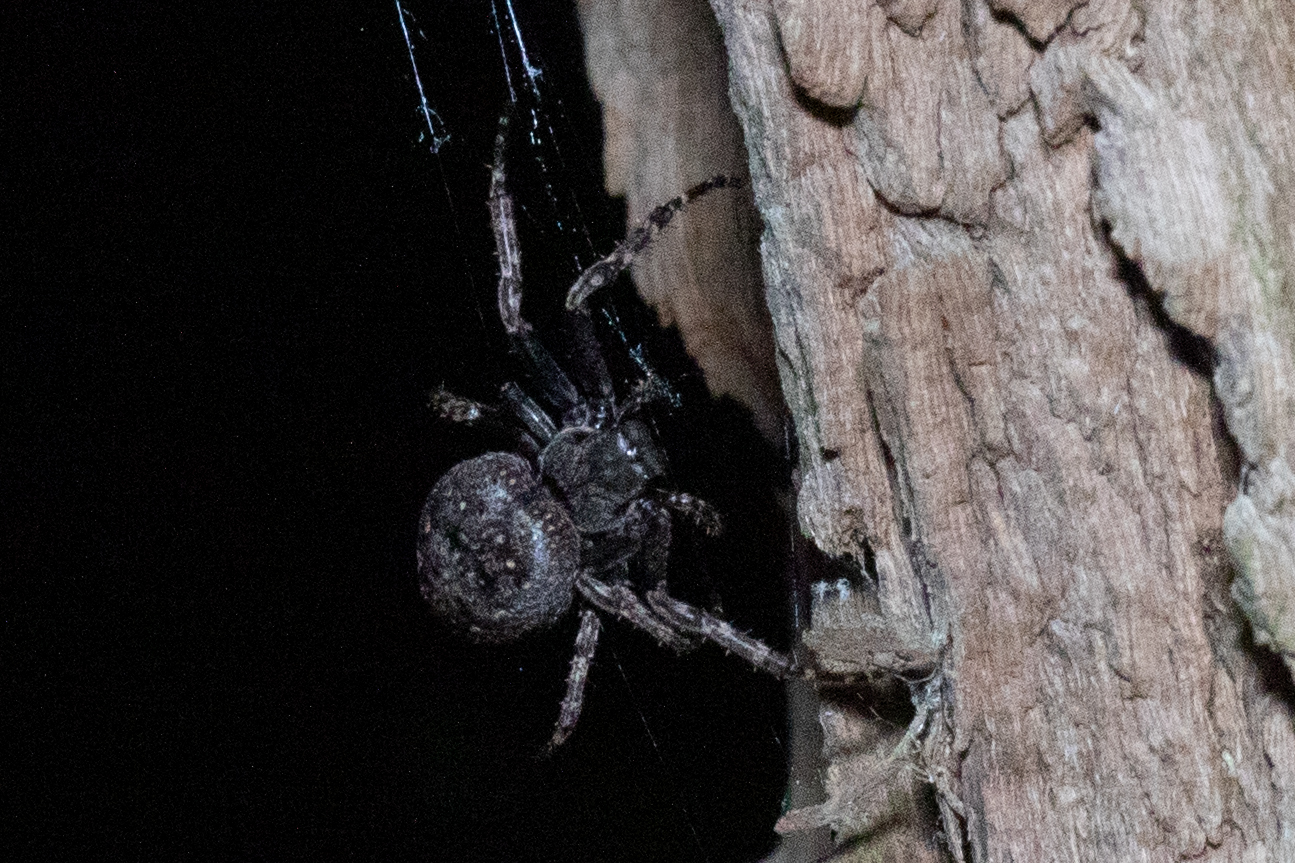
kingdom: Animalia
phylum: Arthropoda
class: Arachnida
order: Araneae
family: Araneidae
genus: Nuctenea
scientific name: Nuctenea umbratica
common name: Toad spider
